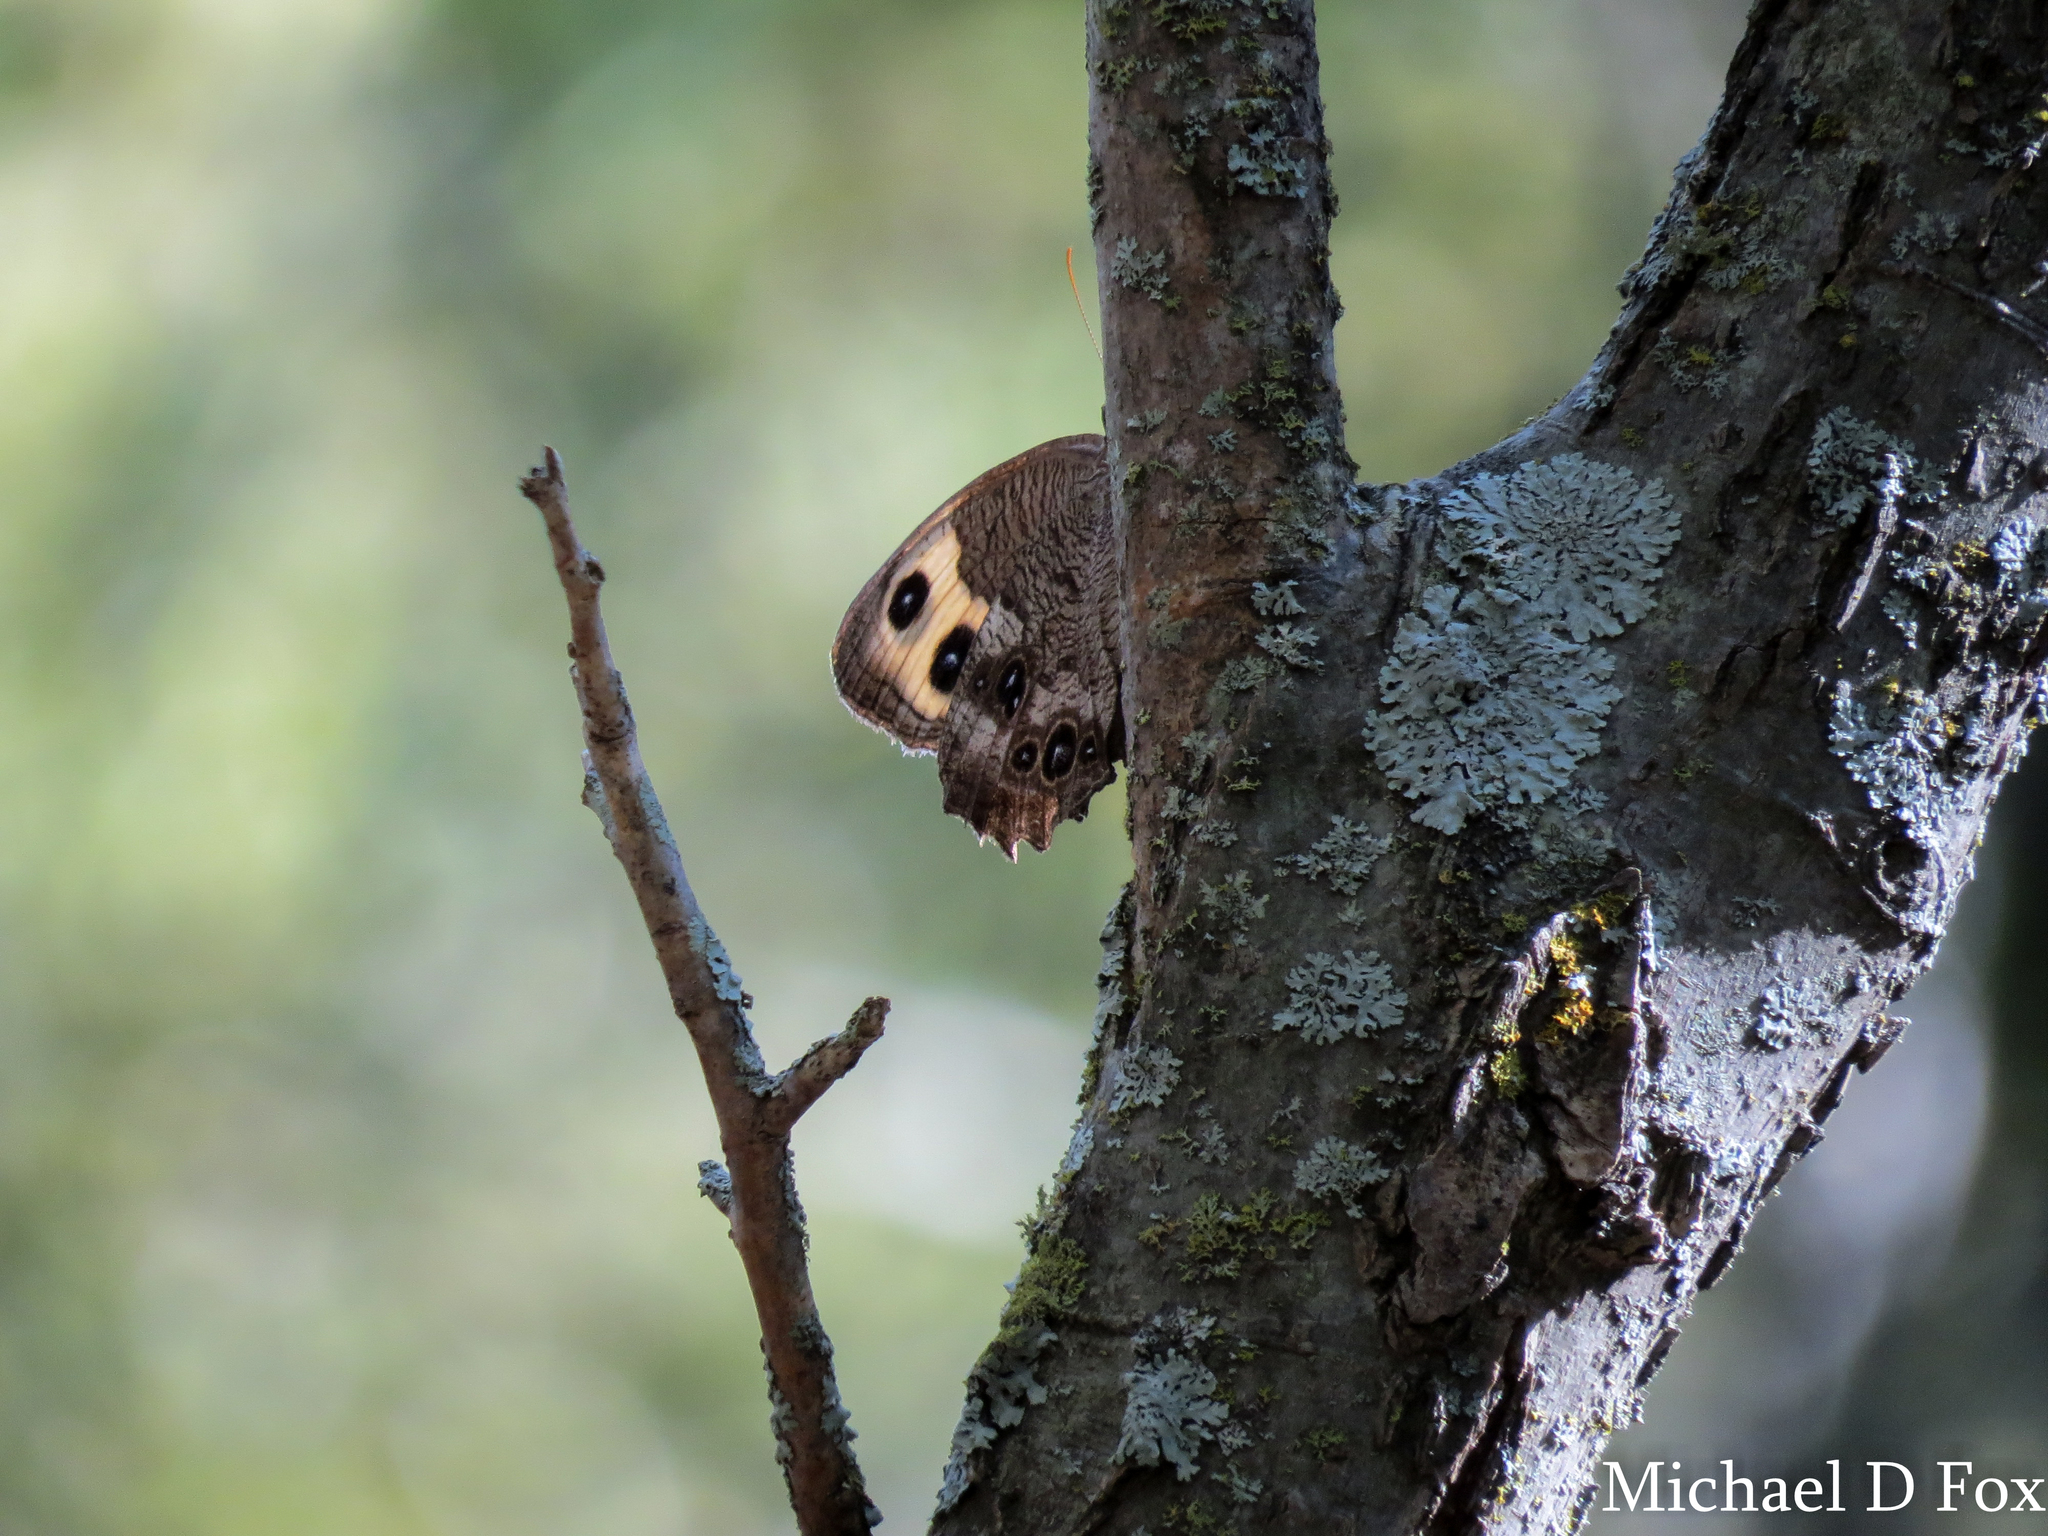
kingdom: Animalia
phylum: Arthropoda
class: Insecta
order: Lepidoptera
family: Nymphalidae
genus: Cercyonis
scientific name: Cercyonis pegala
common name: Common wood-nymph
